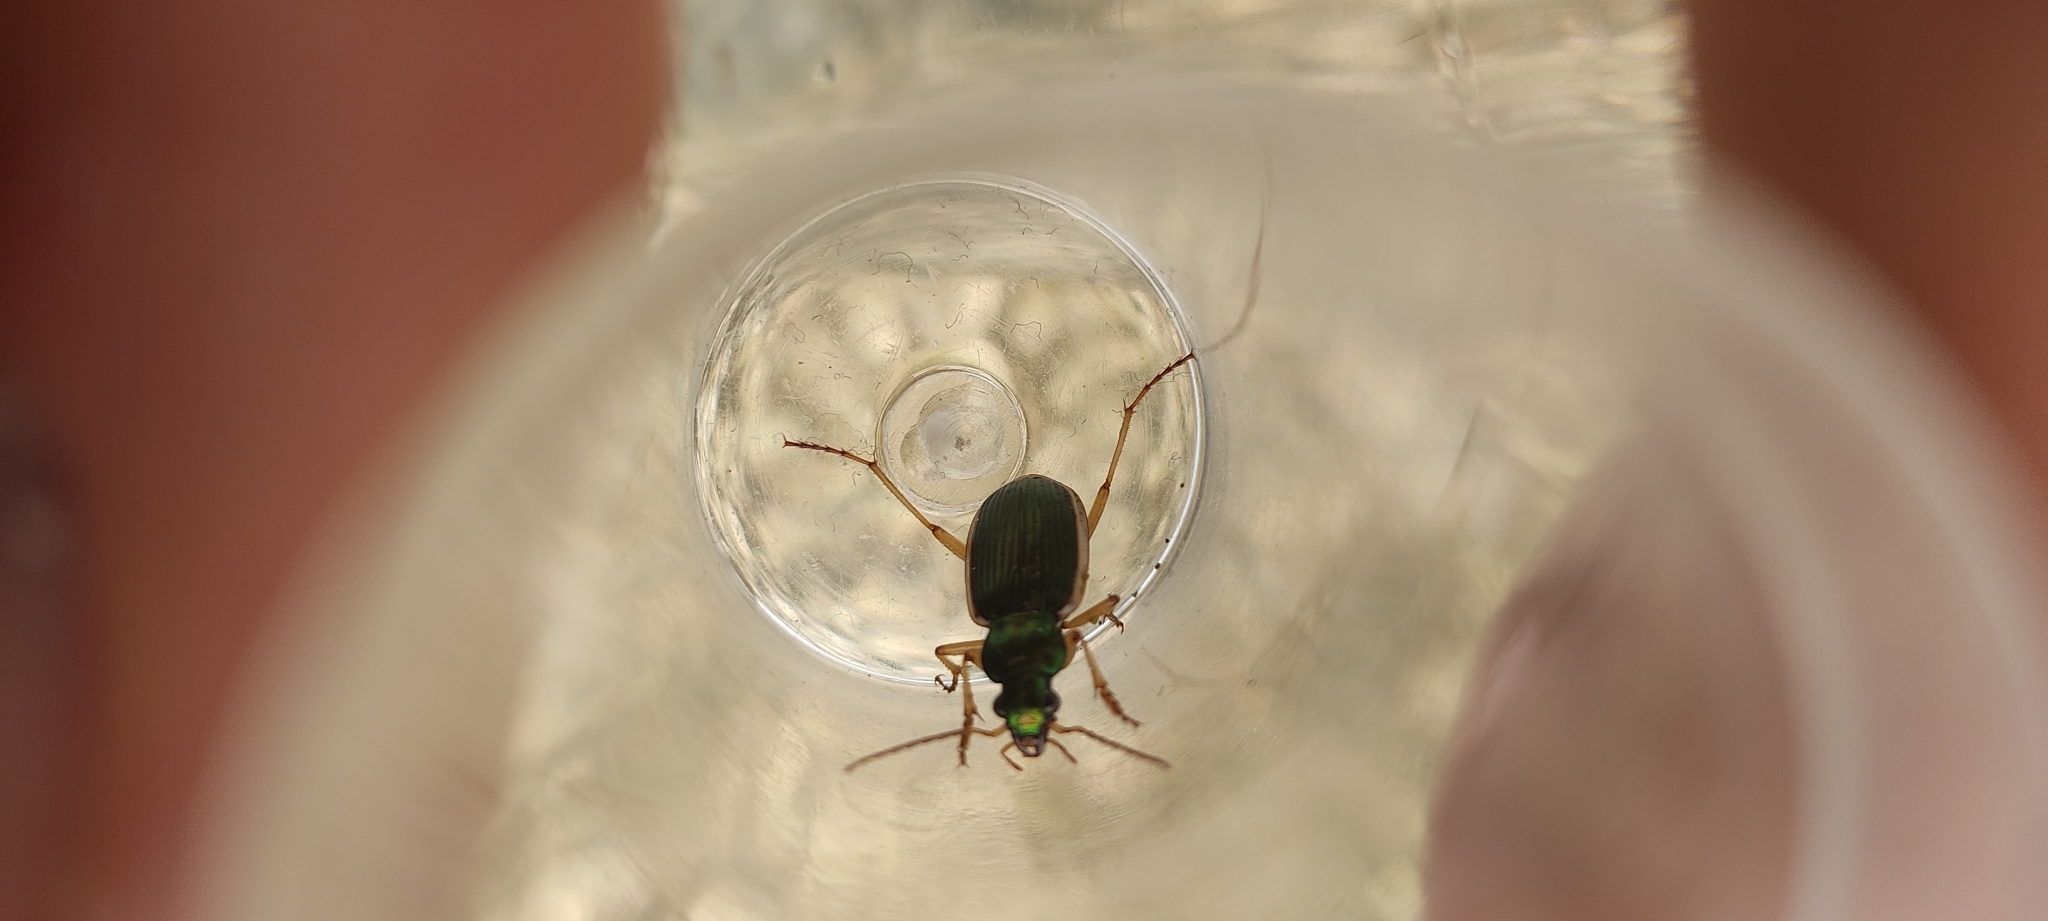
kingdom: Animalia
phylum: Arthropoda
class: Insecta
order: Coleoptera
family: Carabidae
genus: Chlaenius
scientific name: Chlaenius spoliatus
